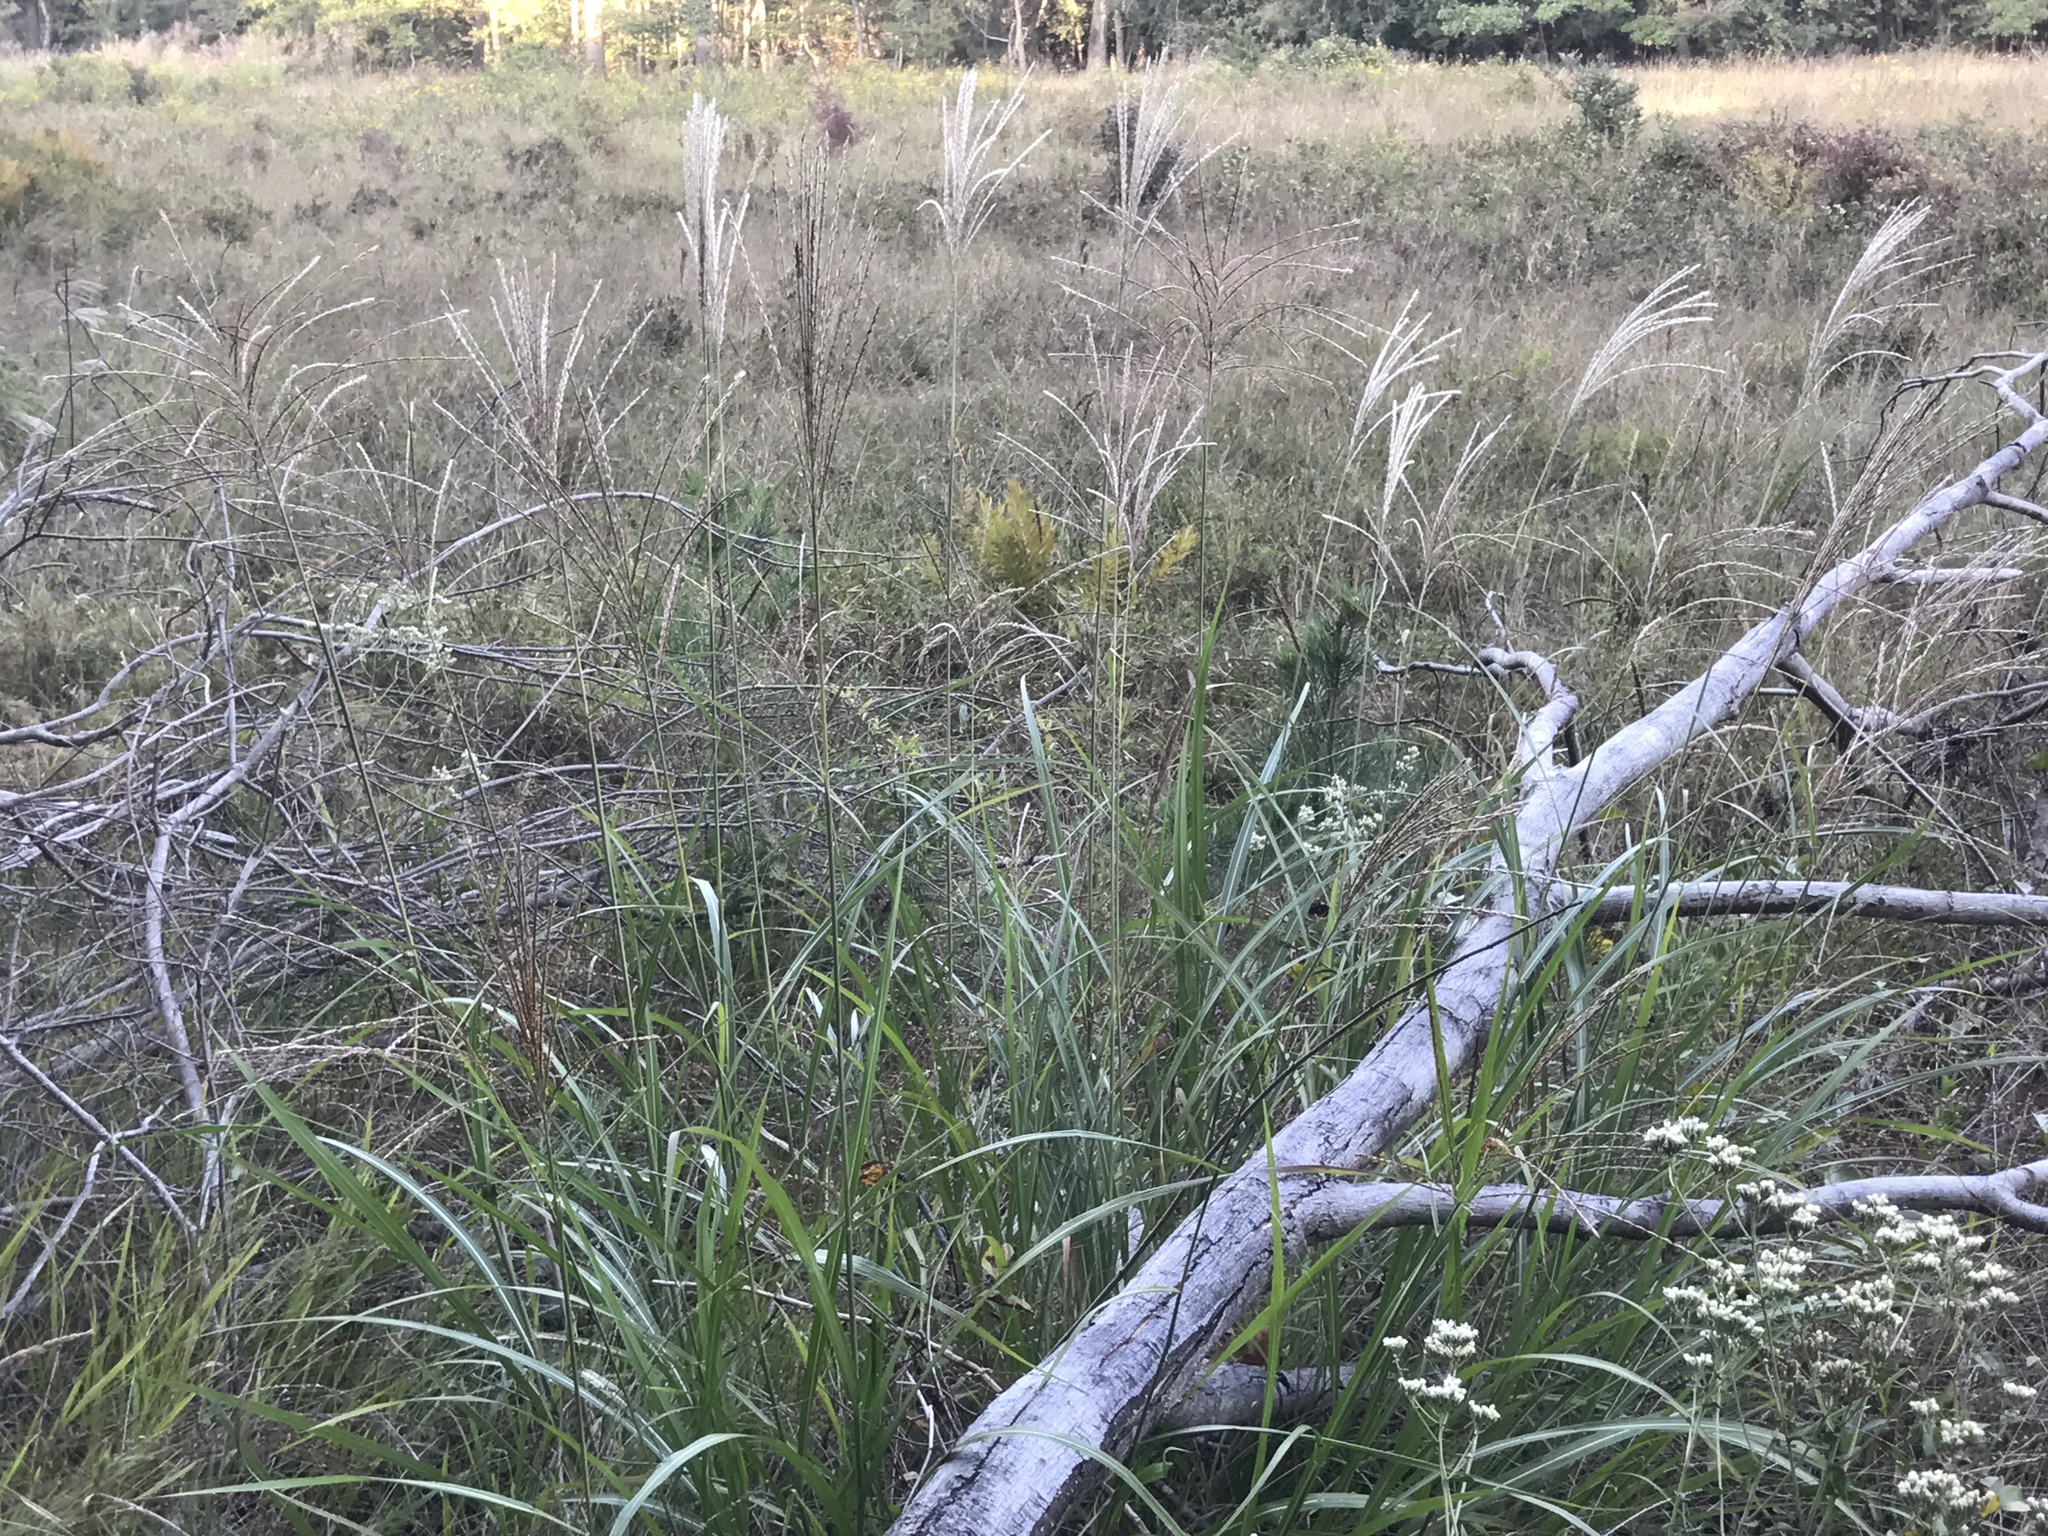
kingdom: Plantae
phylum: Tracheophyta
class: Liliopsida
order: Poales
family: Poaceae
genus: Miscanthus
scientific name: Miscanthus sinensis
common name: Chinese silvergrass
